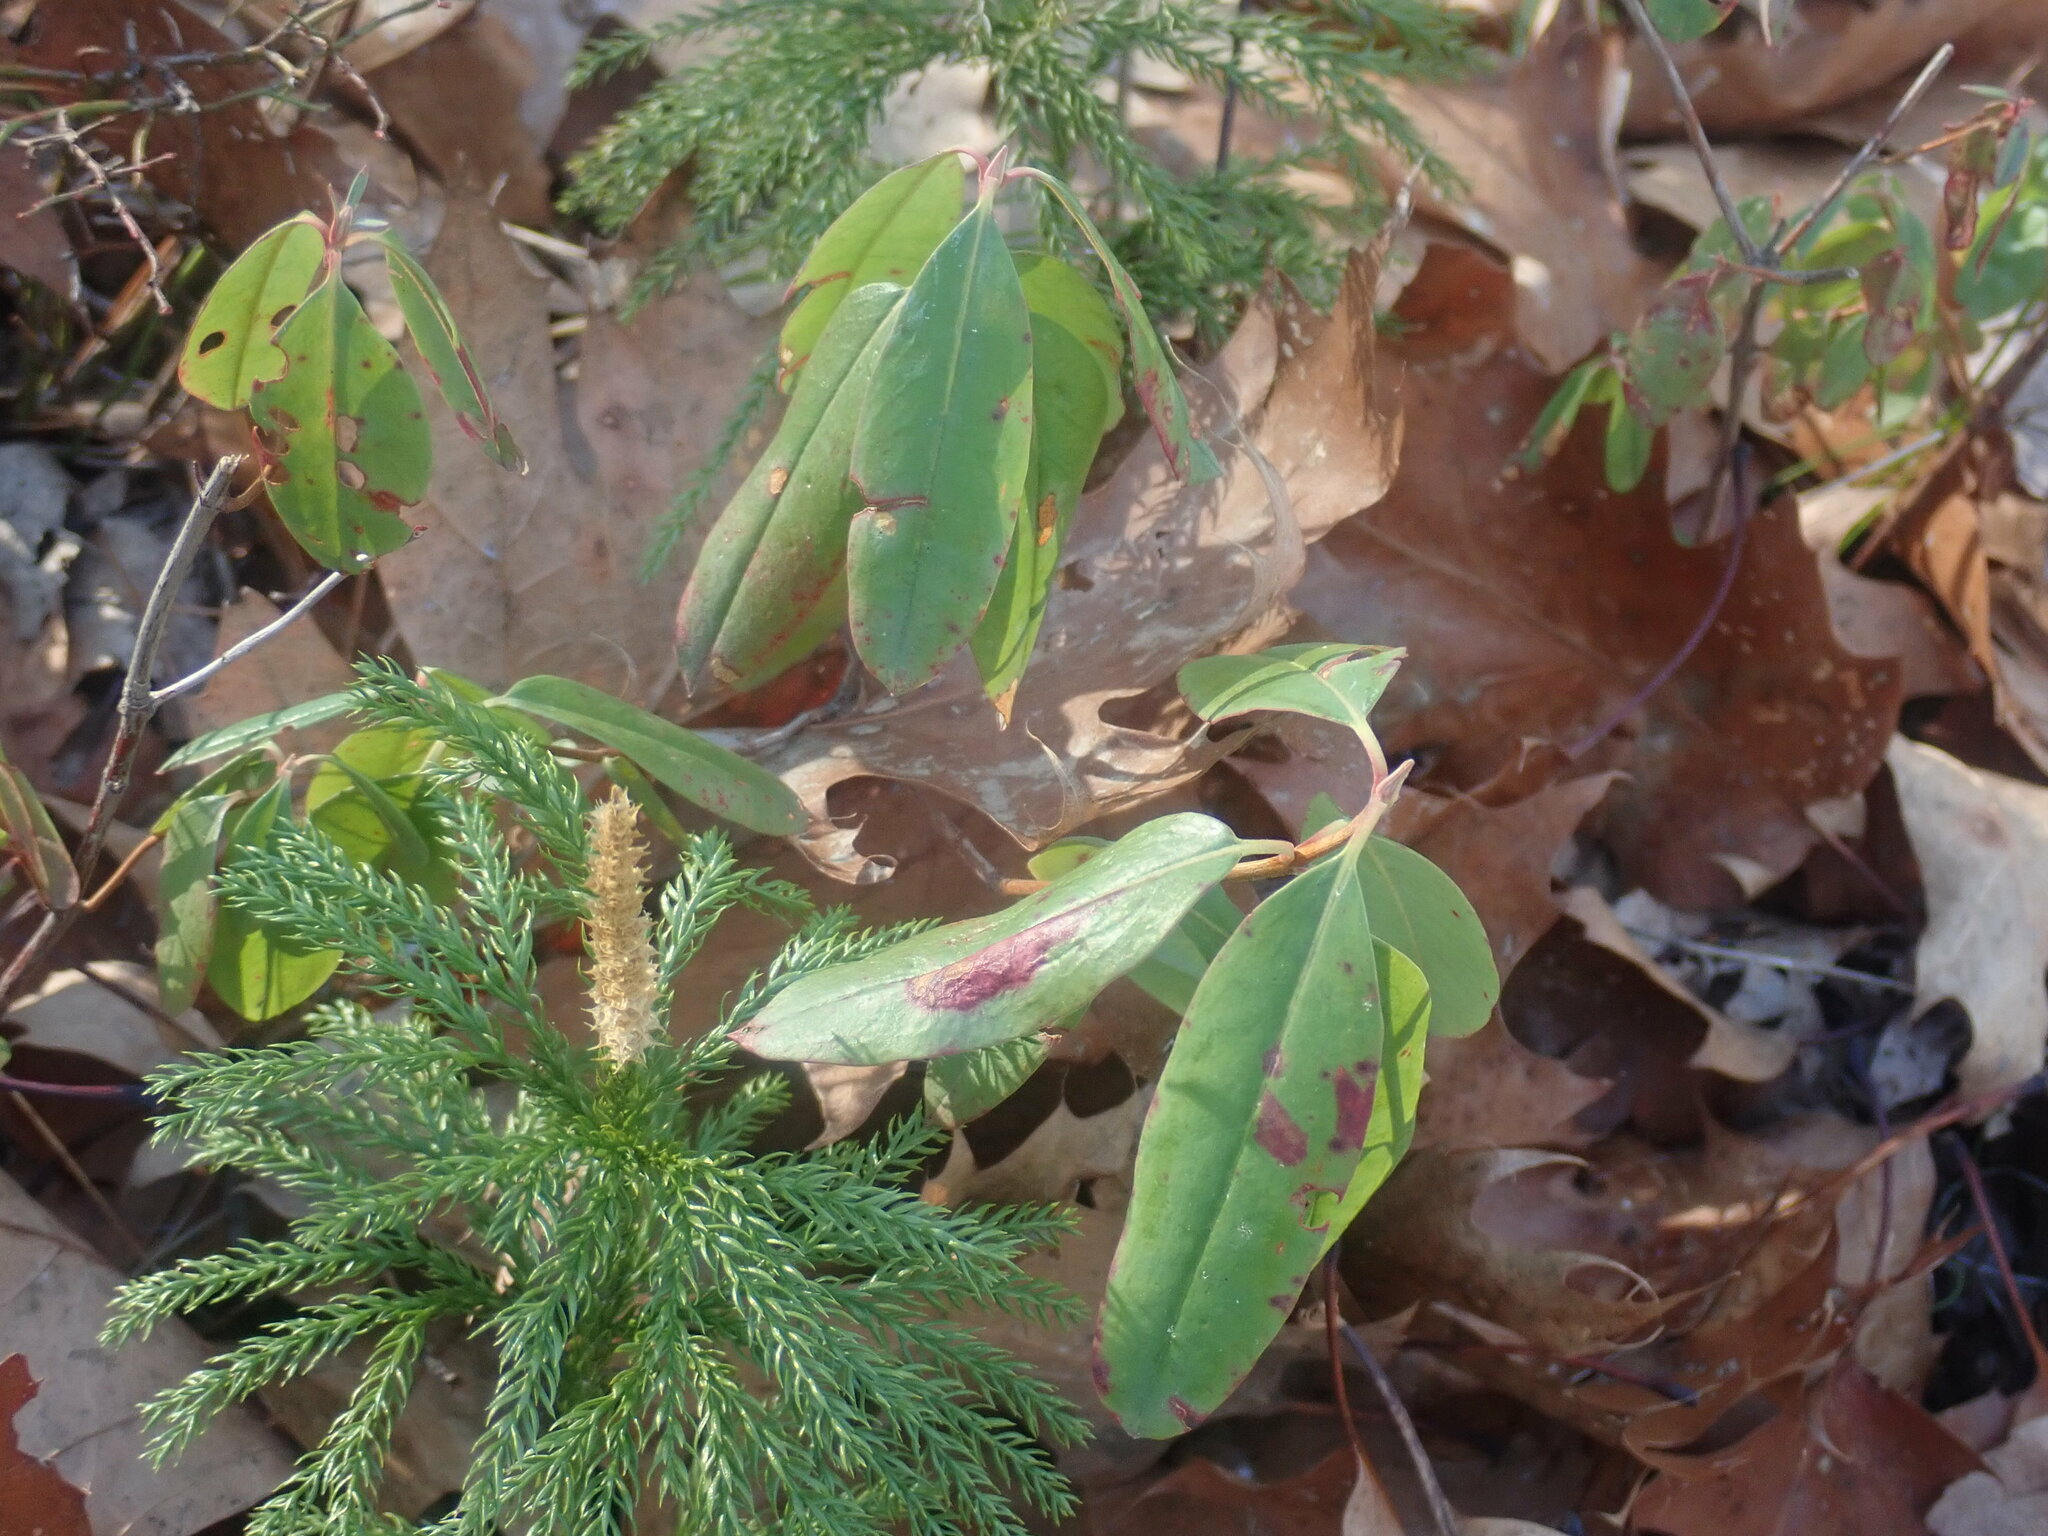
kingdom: Plantae
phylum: Tracheophyta
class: Magnoliopsida
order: Ericales
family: Ericaceae
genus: Kalmia
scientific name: Kalmia angustifolia
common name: Sheep-laurel
